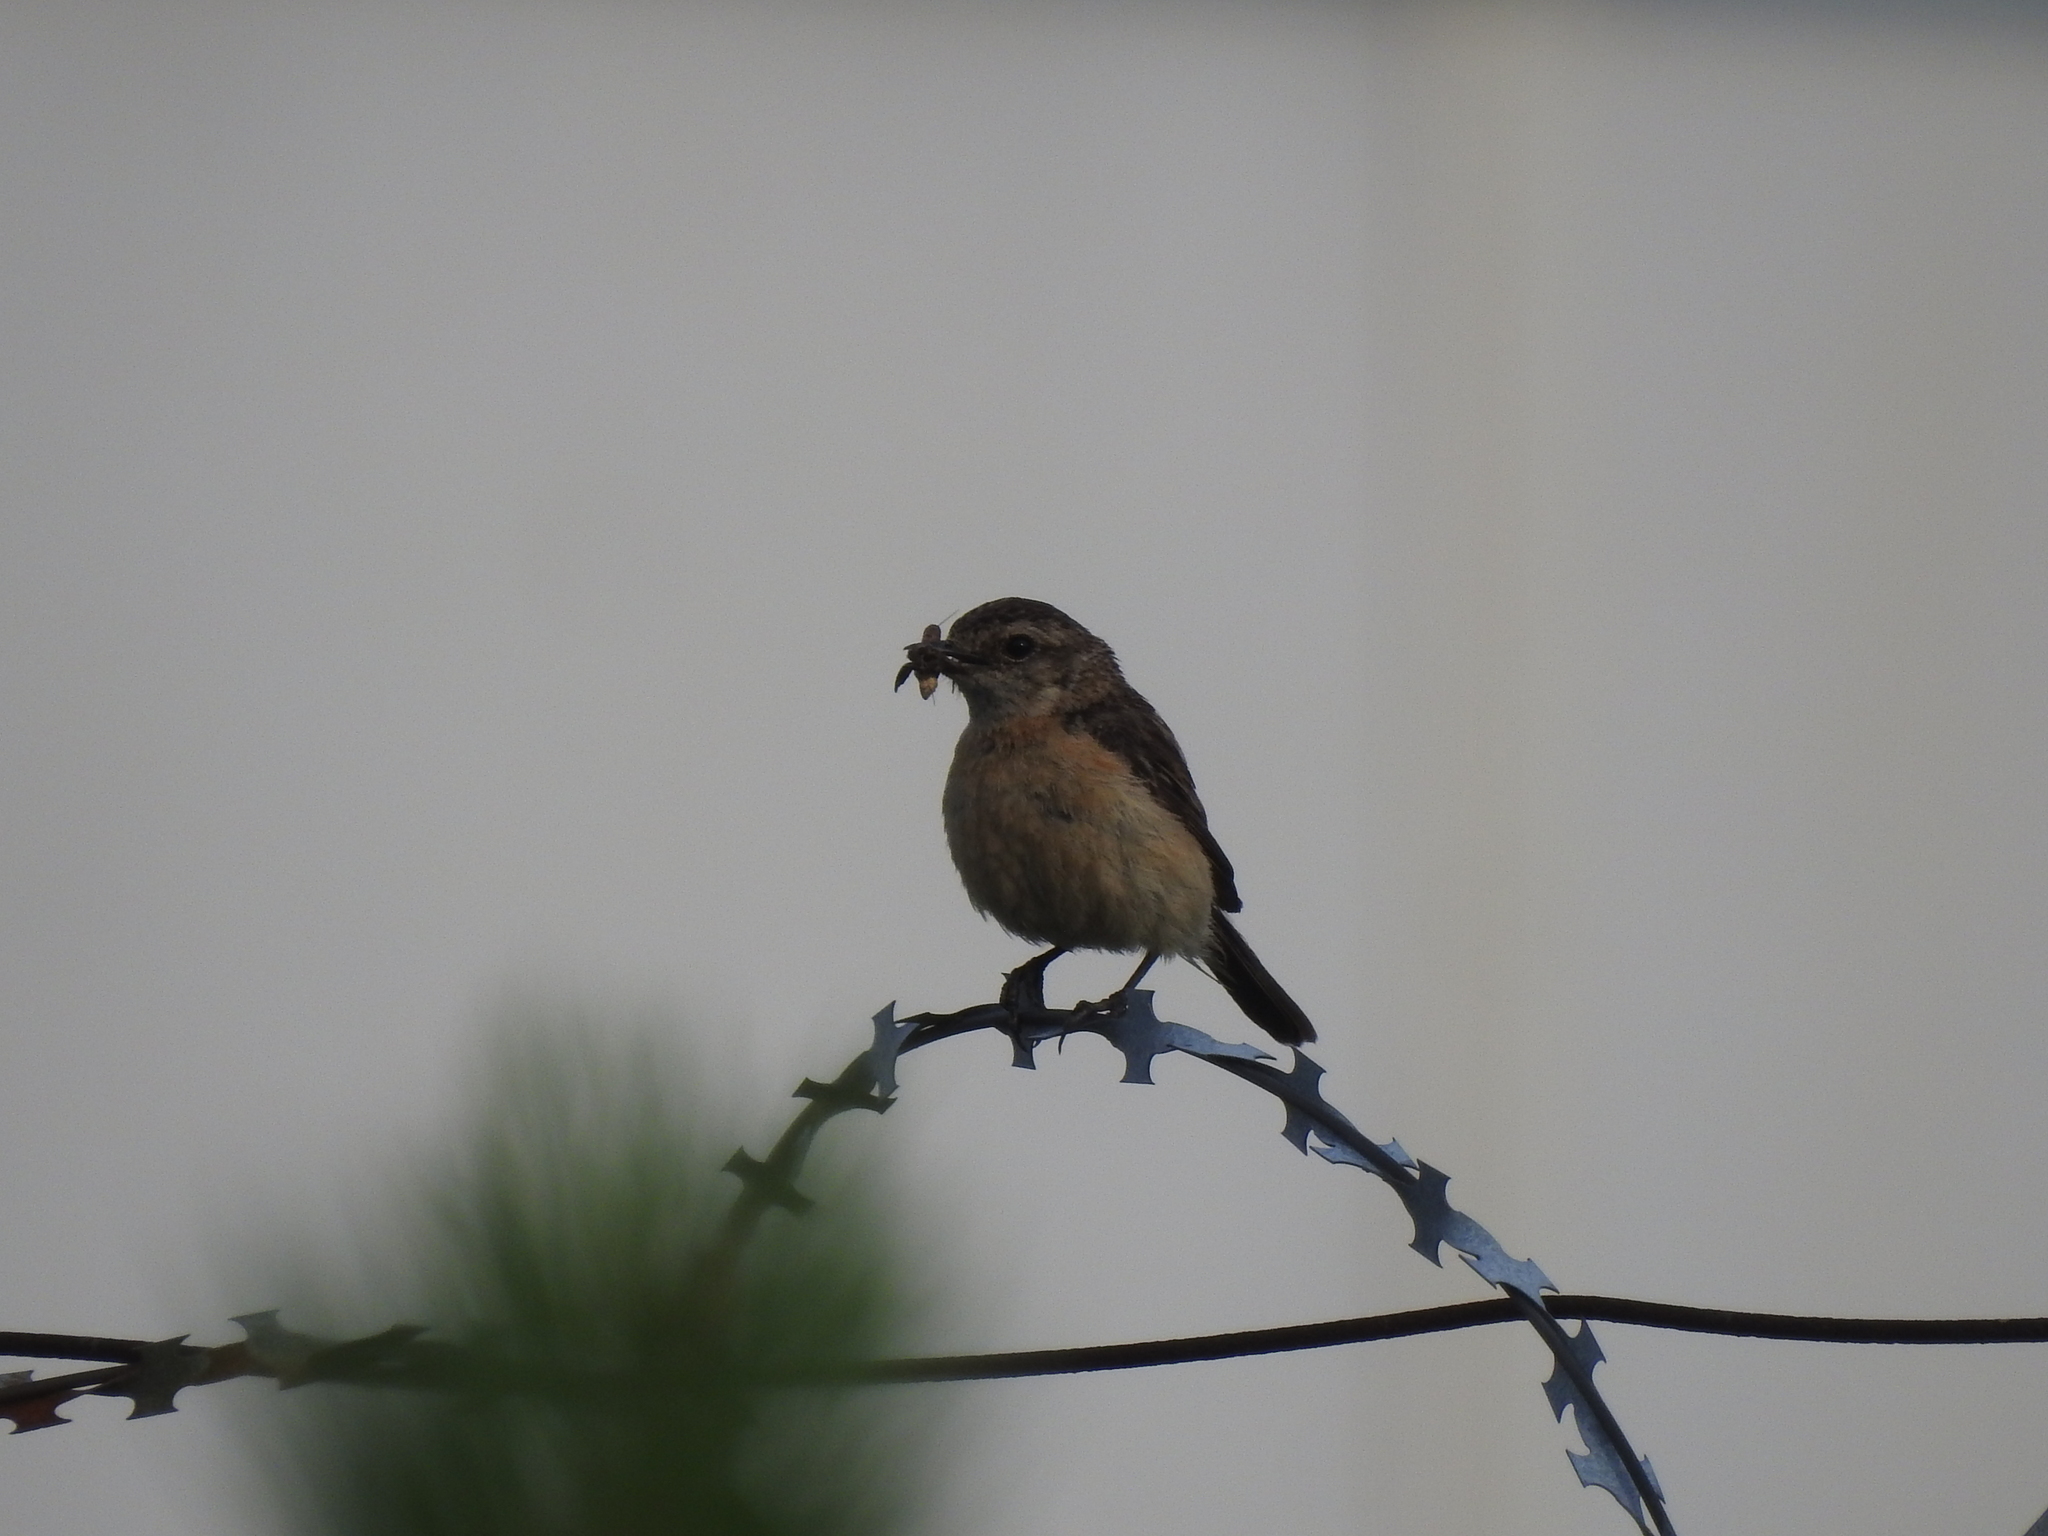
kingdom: Animalia
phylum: Chordata
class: Aves
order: Passeriformes
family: Muscicapidae
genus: Saxicola
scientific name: Saxicola maurus
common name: Siberian stonechat
